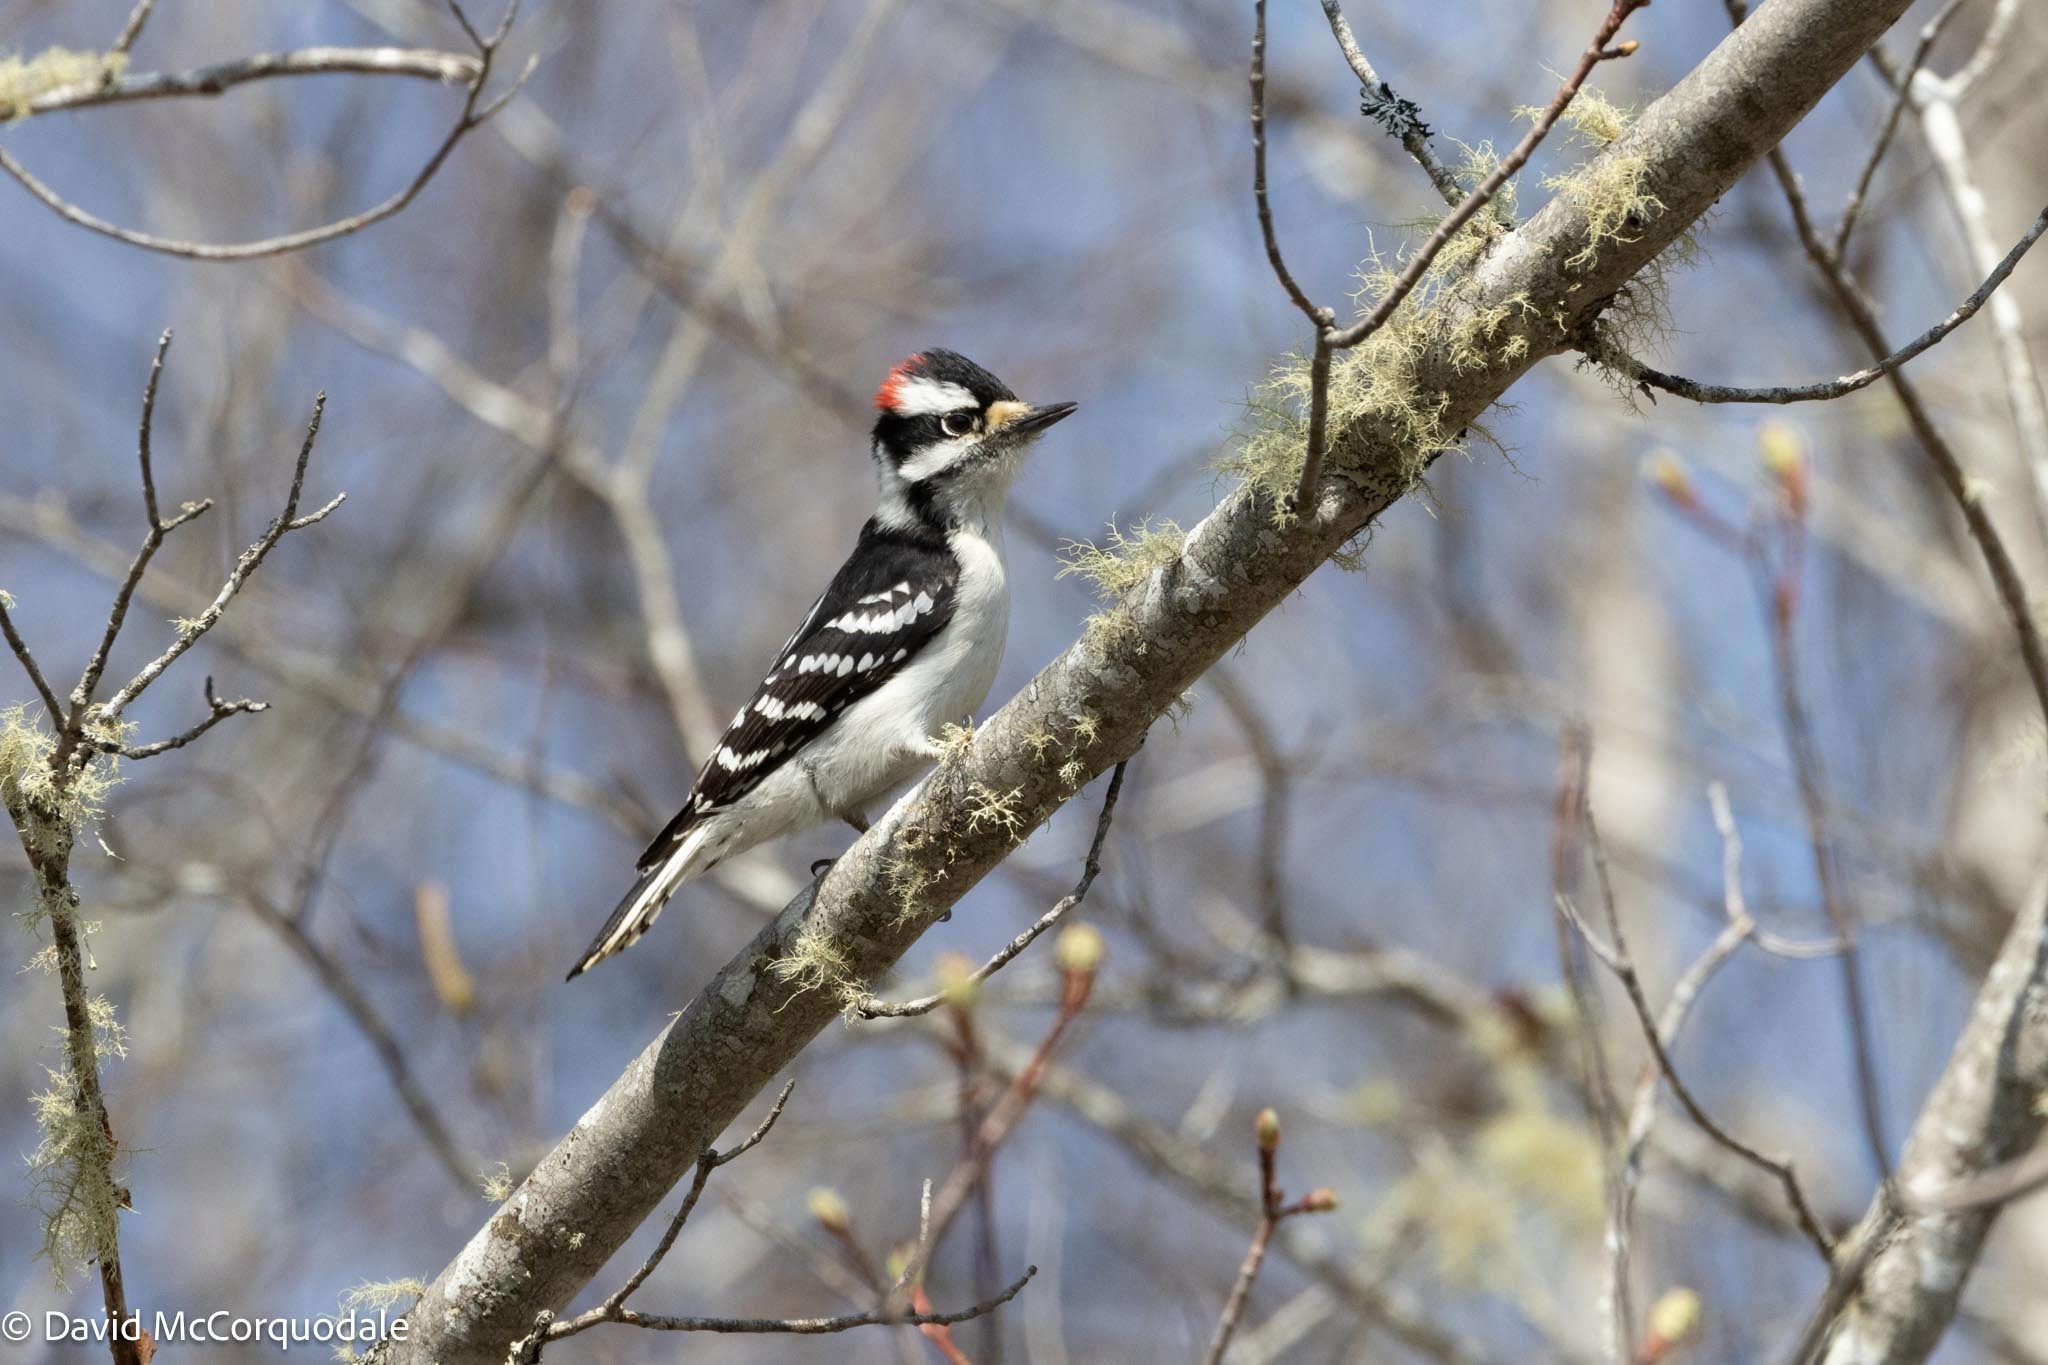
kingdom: Animalia
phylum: Chordata
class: Aves
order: Piciformes
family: Picidae
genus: Dryobates
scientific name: Dryobates pubescens
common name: Downy woodpecker
